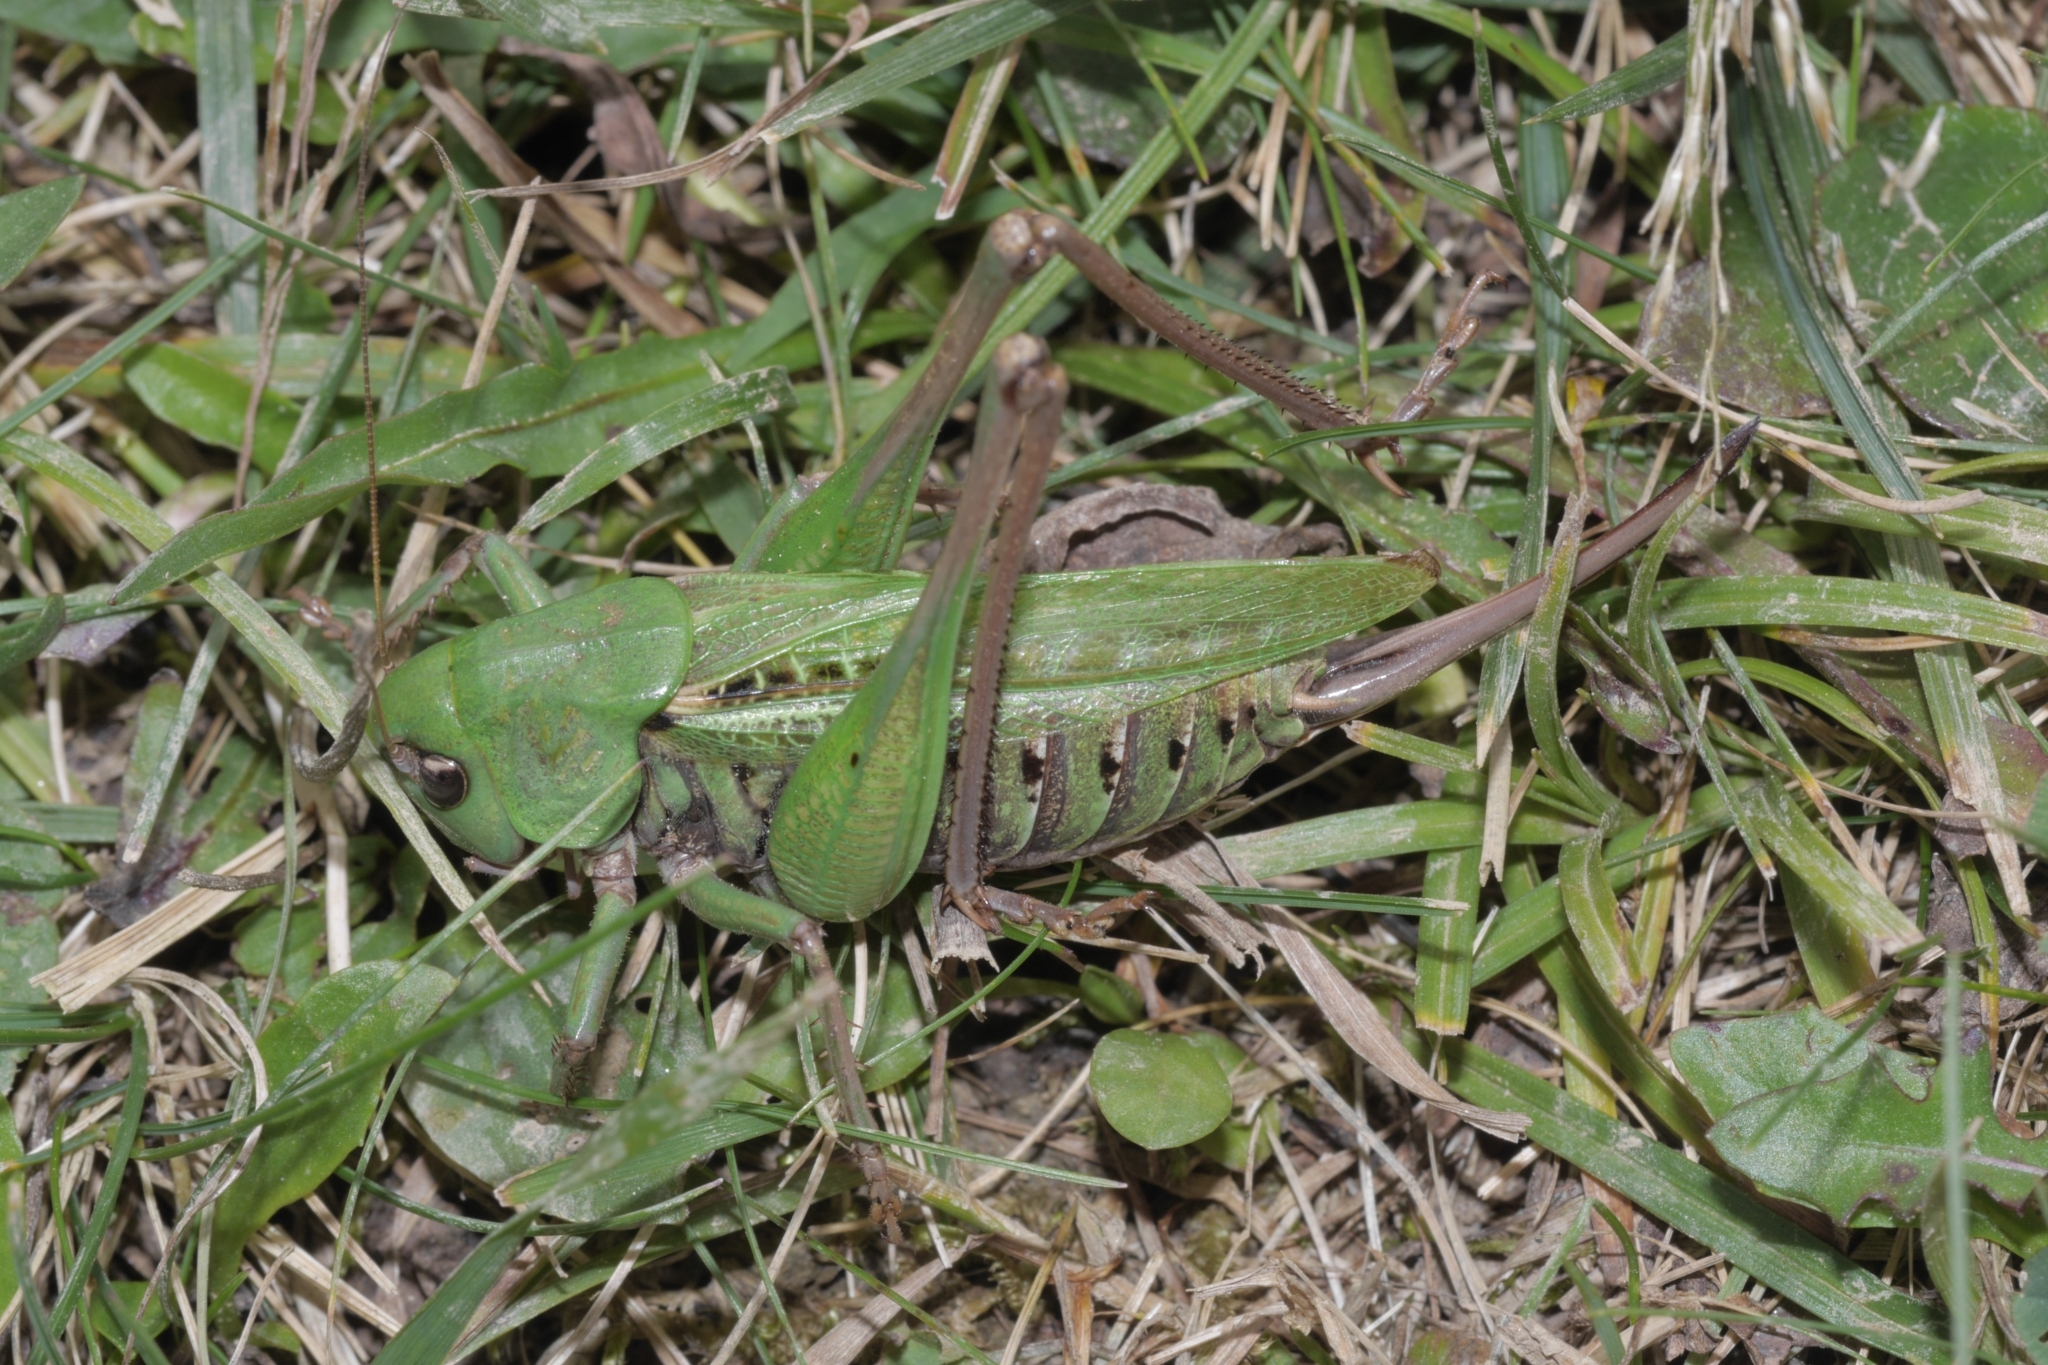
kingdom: Animalia
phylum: Arthropoda
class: Insecta
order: Orthoptera
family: Tettigoniidae
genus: Decticus
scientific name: Decticus verrucivorus
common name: Wart-biter
